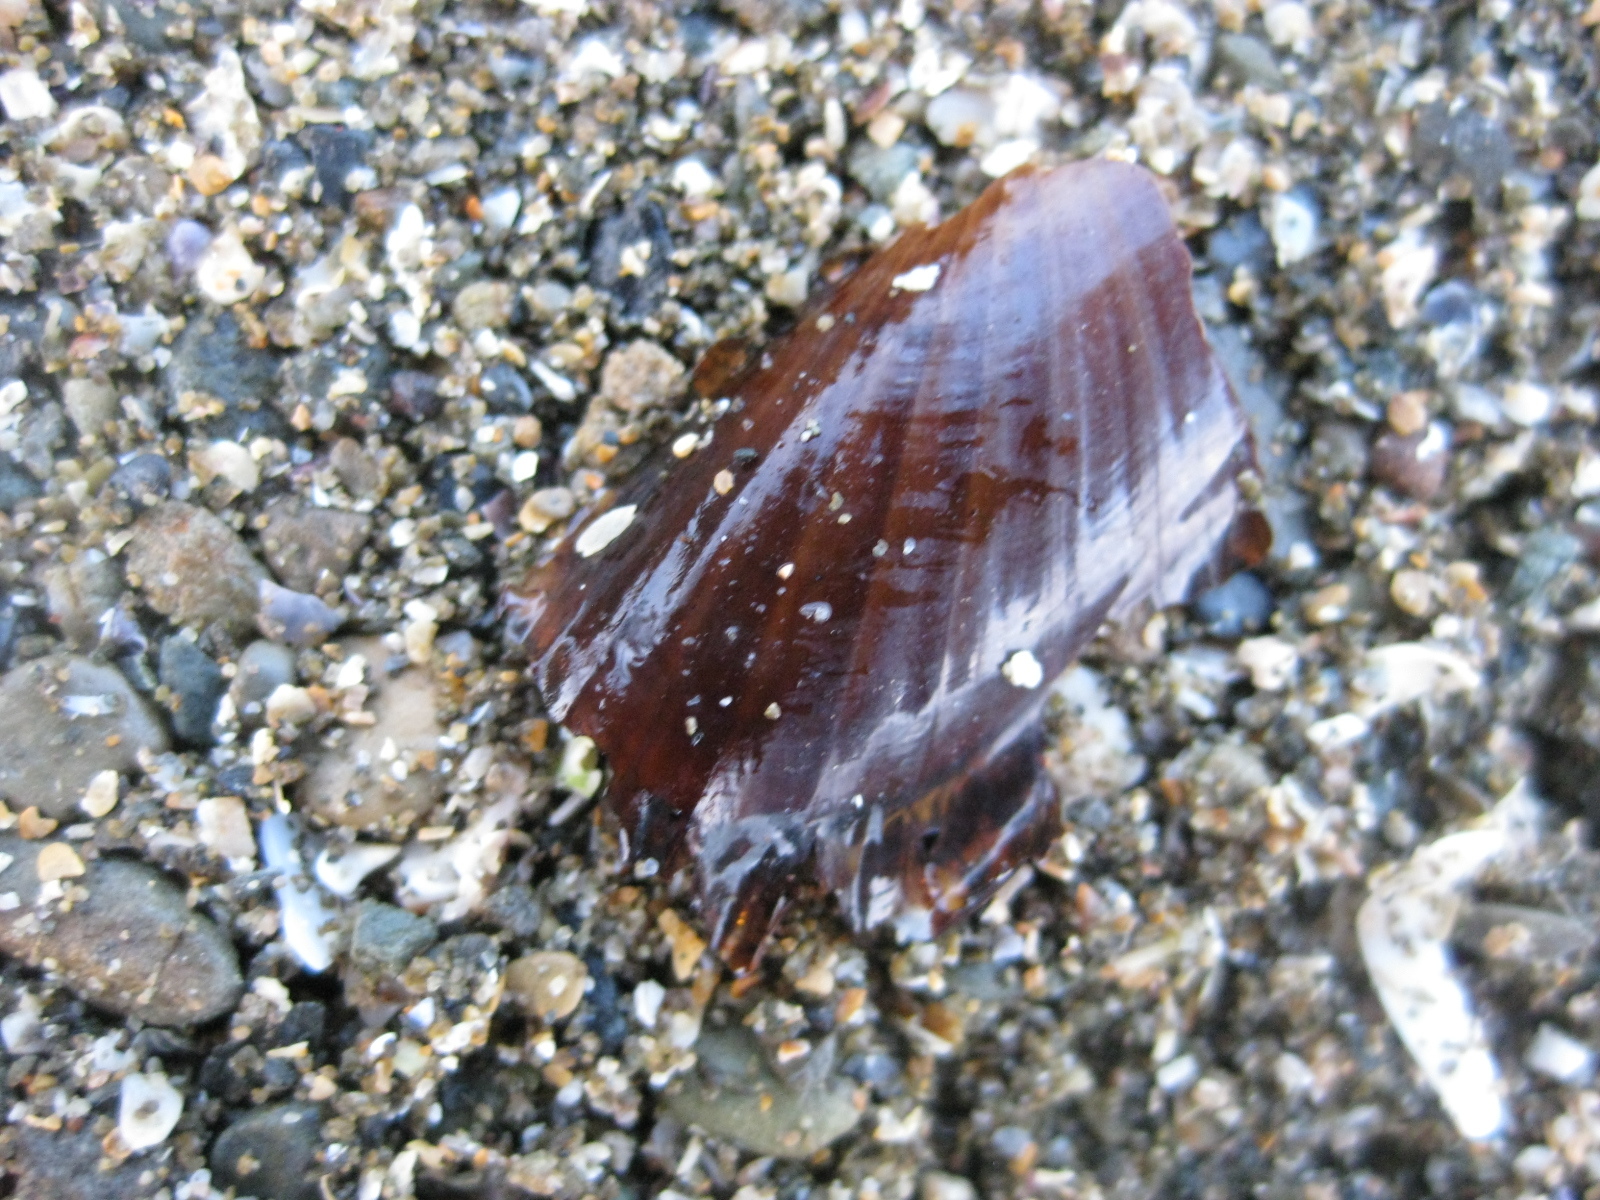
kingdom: Animalia
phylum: Mollusca
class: Bivalvia
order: Solemyida
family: Solemyidae
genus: Solemya
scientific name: Solemya parkinsonii
